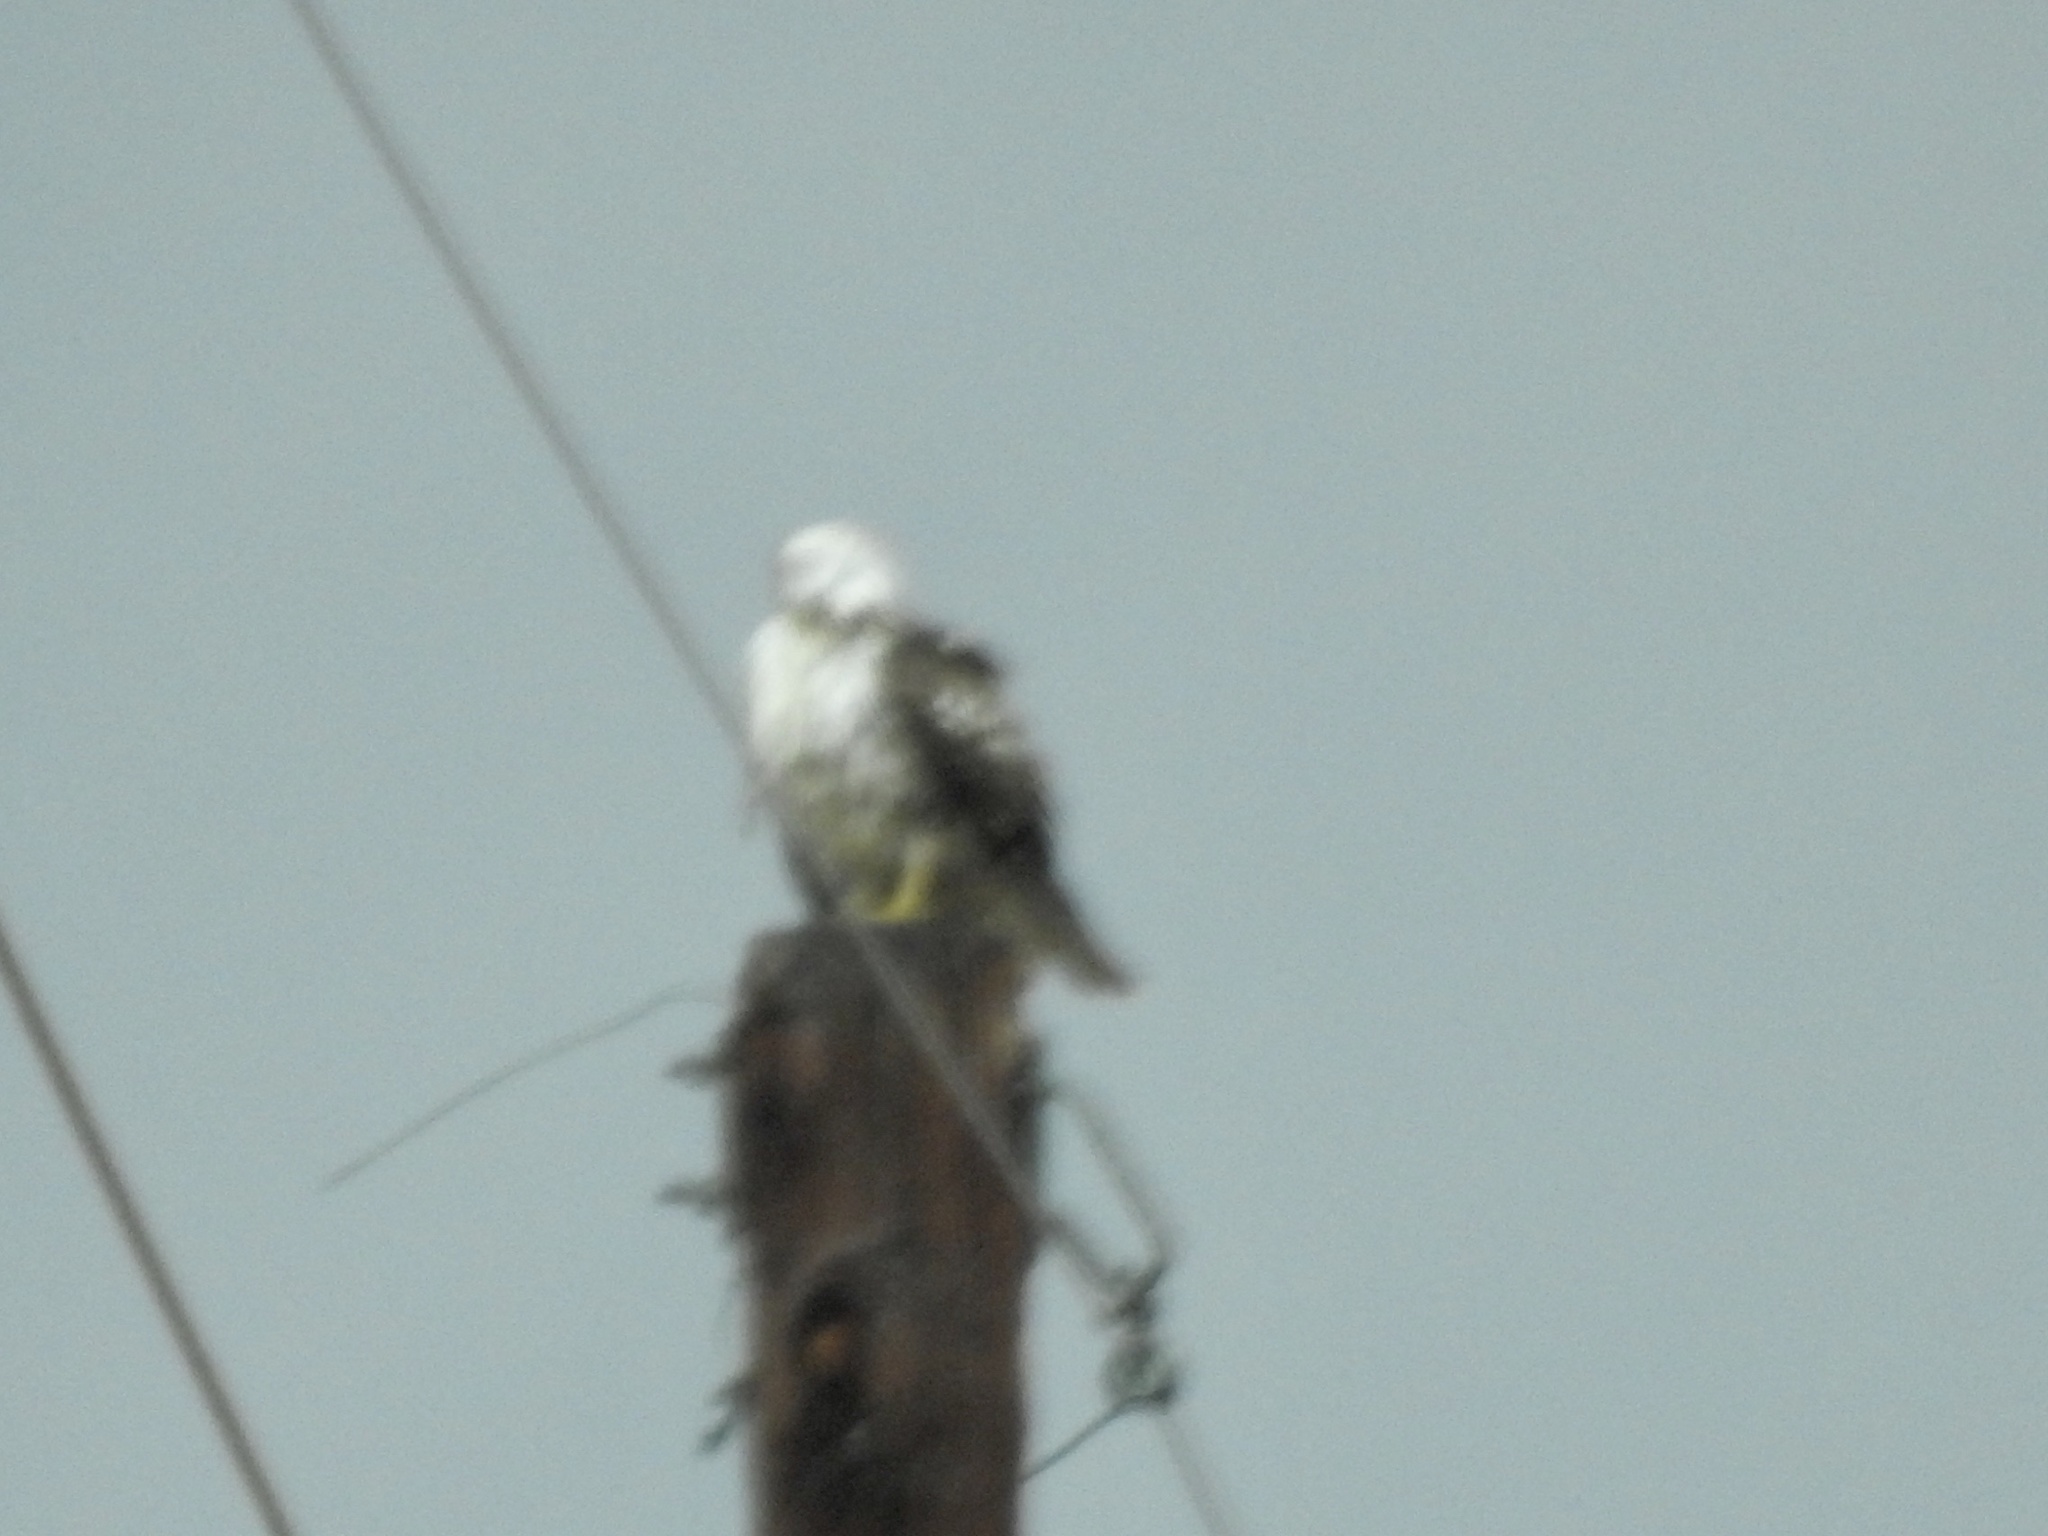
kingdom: Animalia
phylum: Chordata
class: Aves
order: Accipitriformes
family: Accipitridae
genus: Buteo
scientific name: Buteo jamaicensis
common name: Red-tailed hawk
